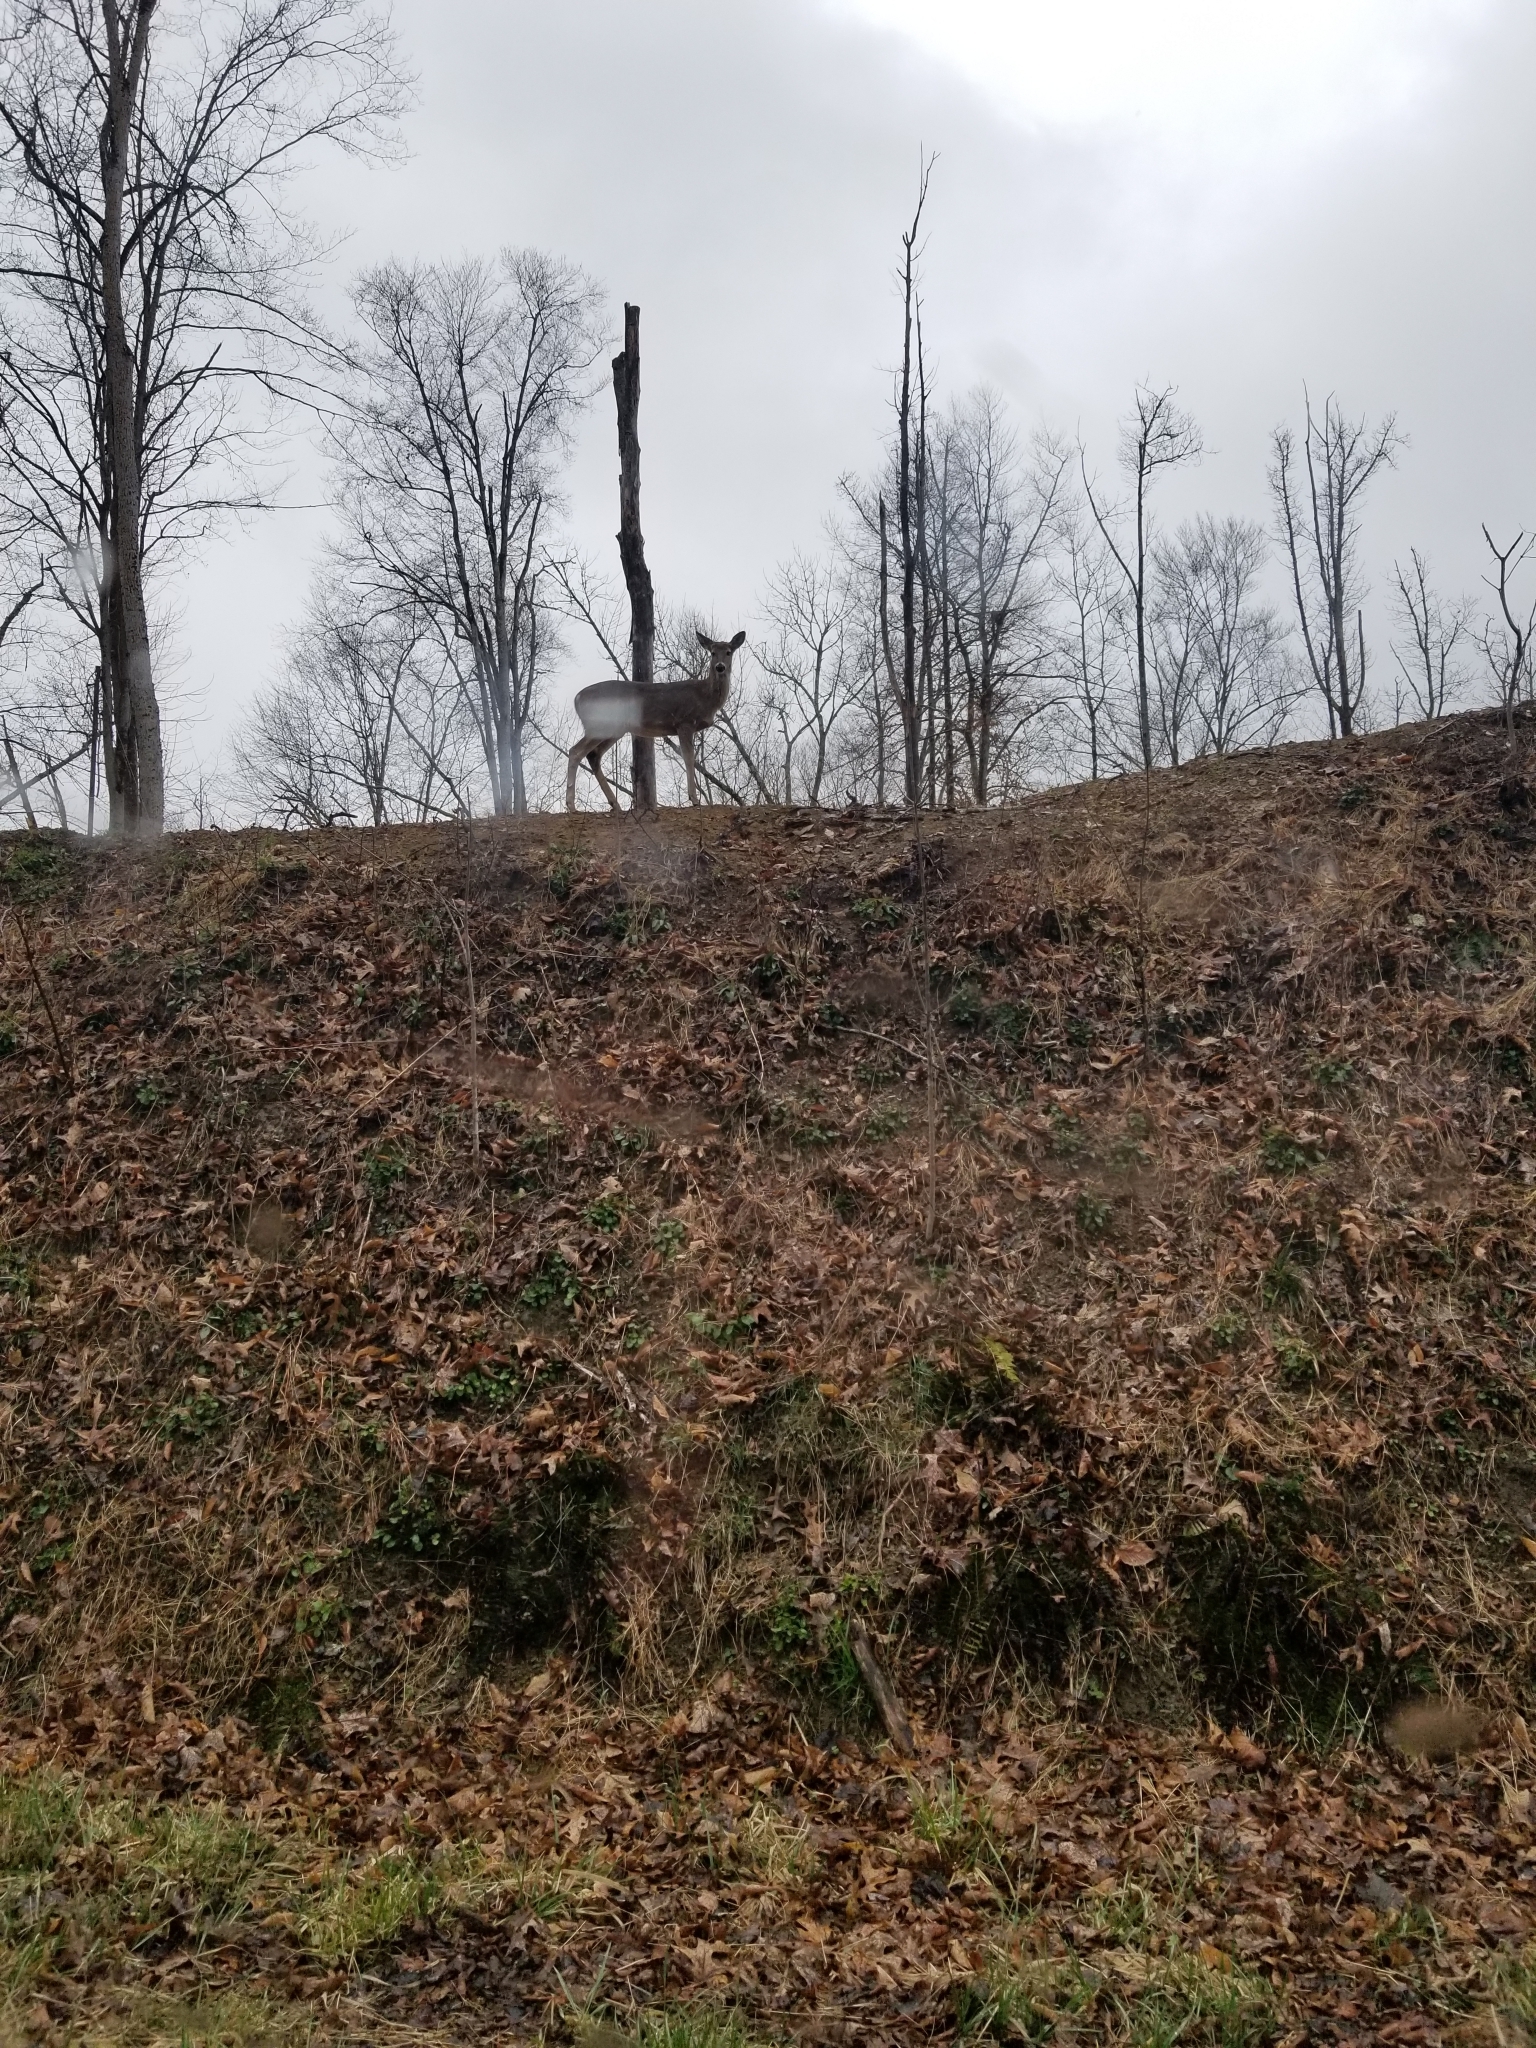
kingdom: Animalia
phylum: Chordata
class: Mammalia
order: Artiodactyla
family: Cervidae
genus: Odocoileus
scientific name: Odocoileus virginianus
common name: White-tailed deer
